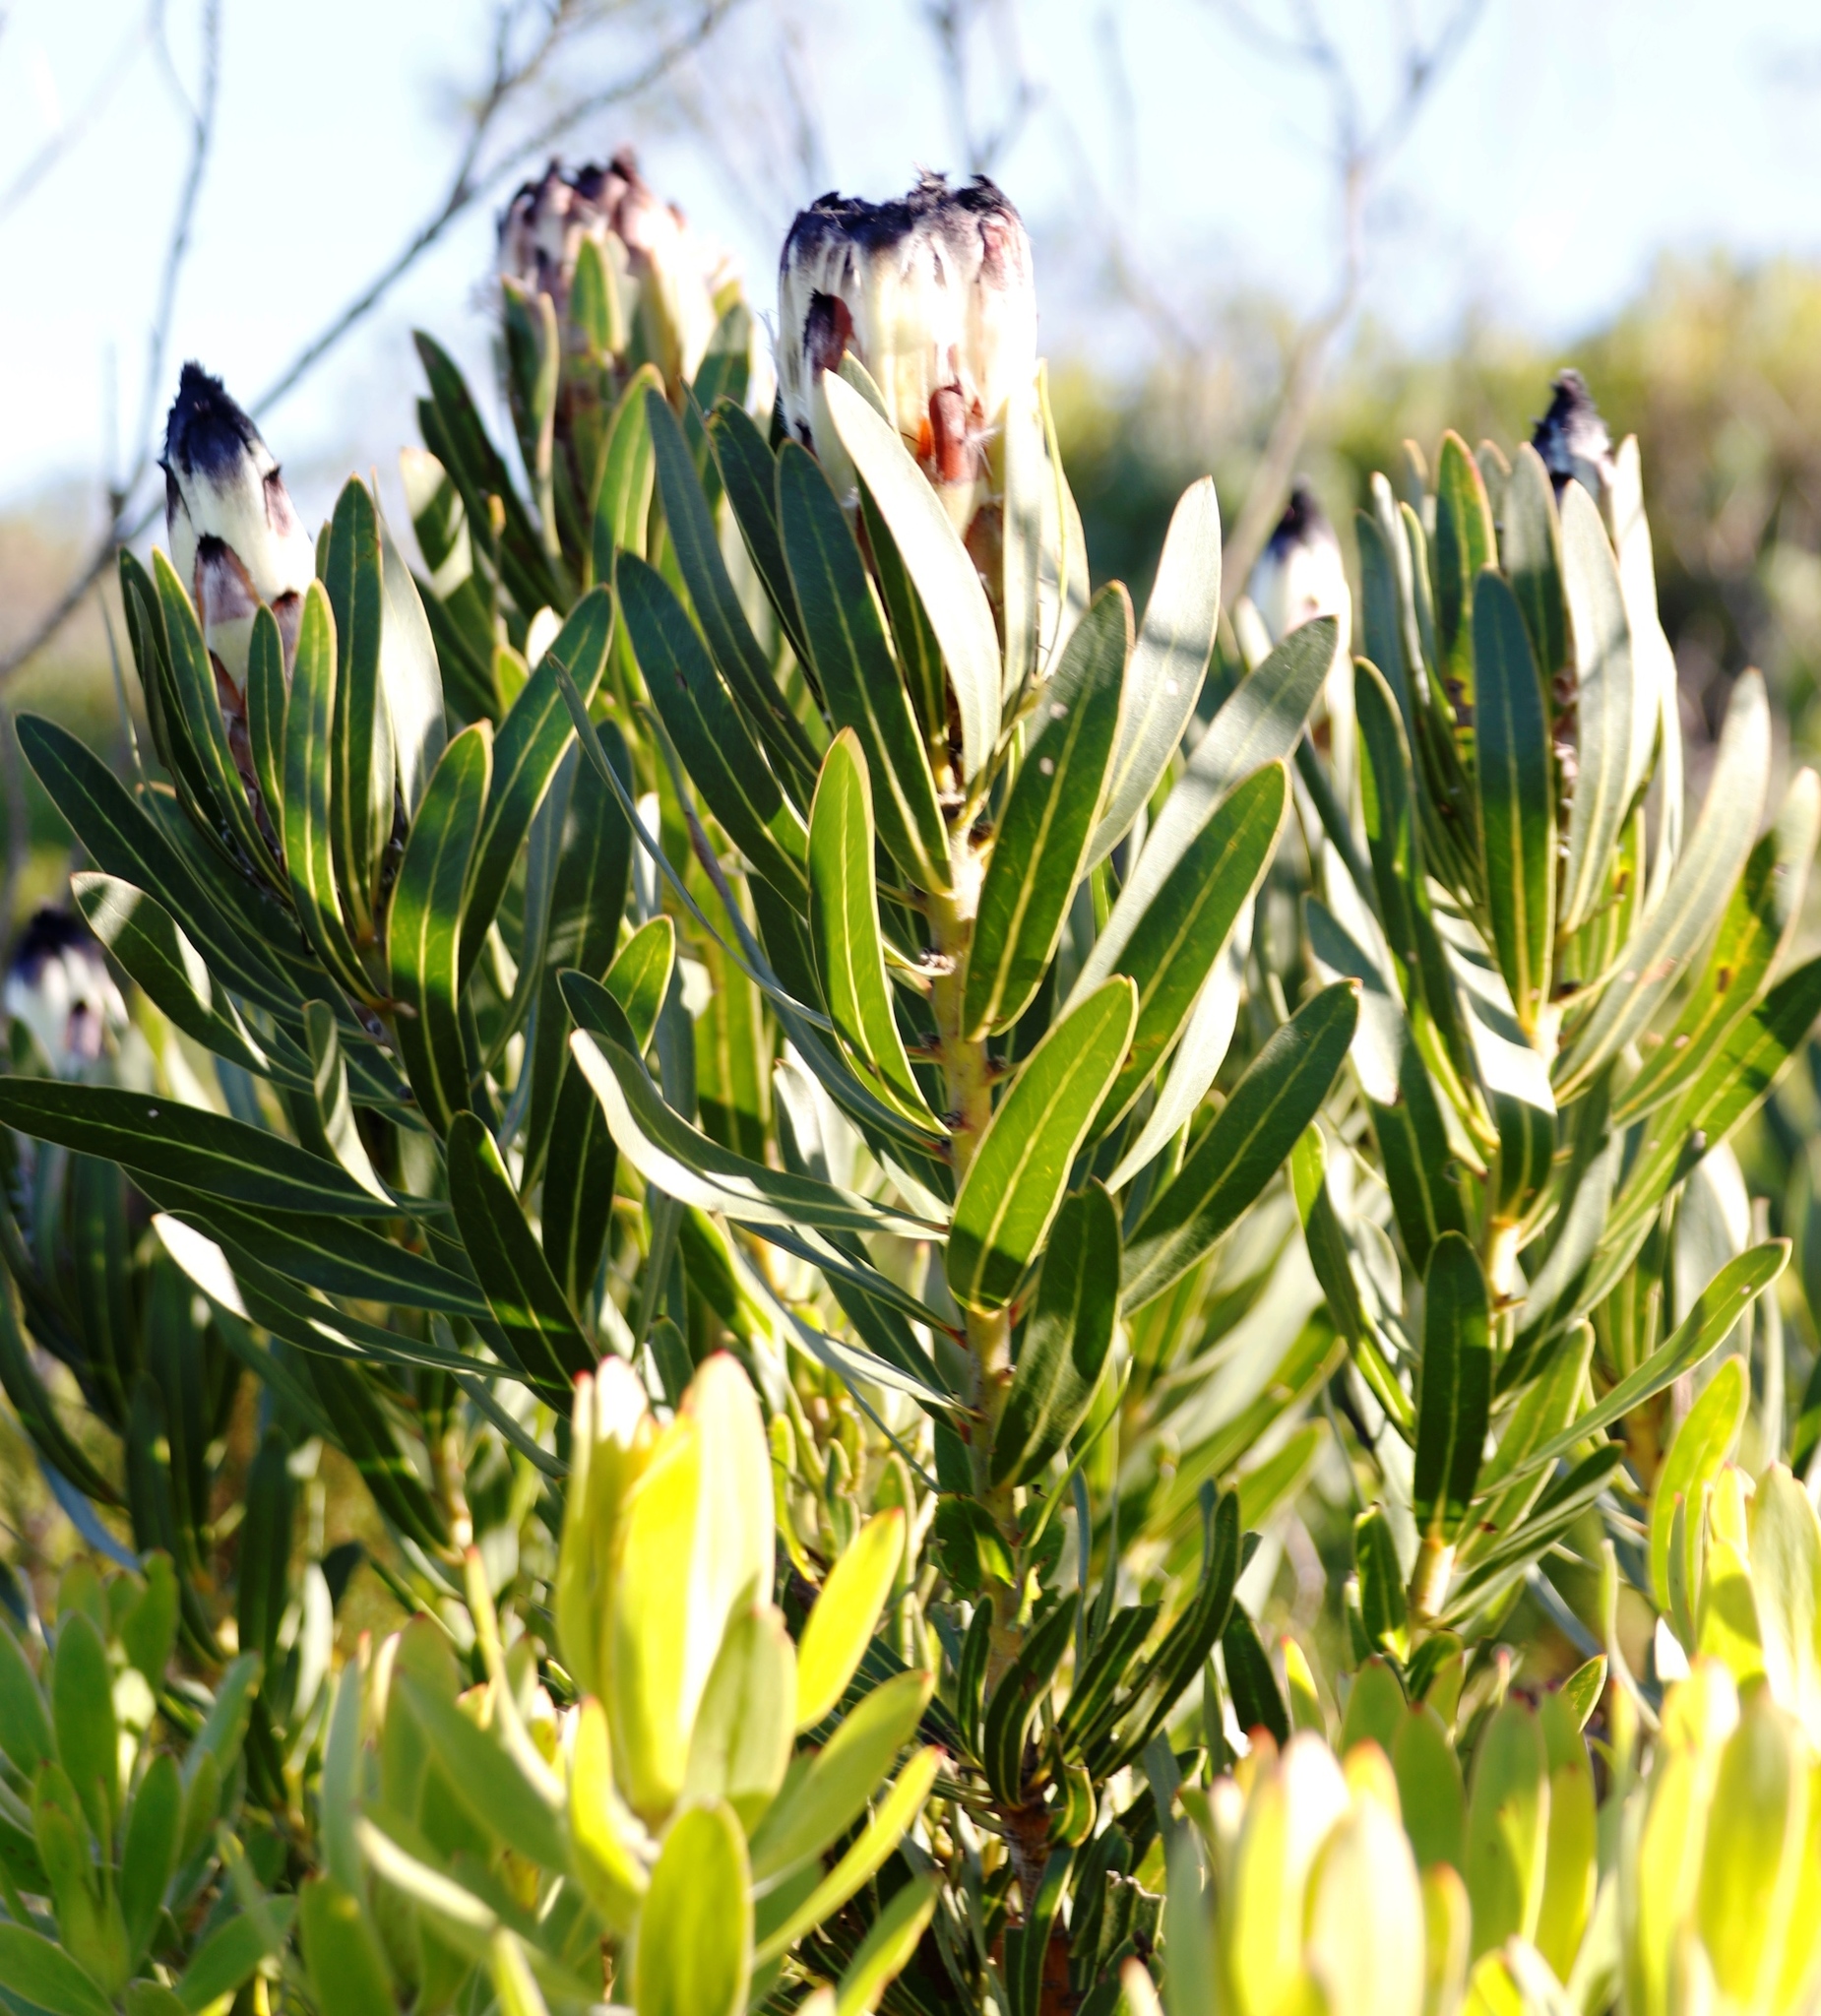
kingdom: Plantae
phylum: Tracheophyta
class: Magnoliopsida
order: Proteales
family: Proteaceae
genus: Protea
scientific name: Protea lepidocarpodendron
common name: Black-bearded protea
